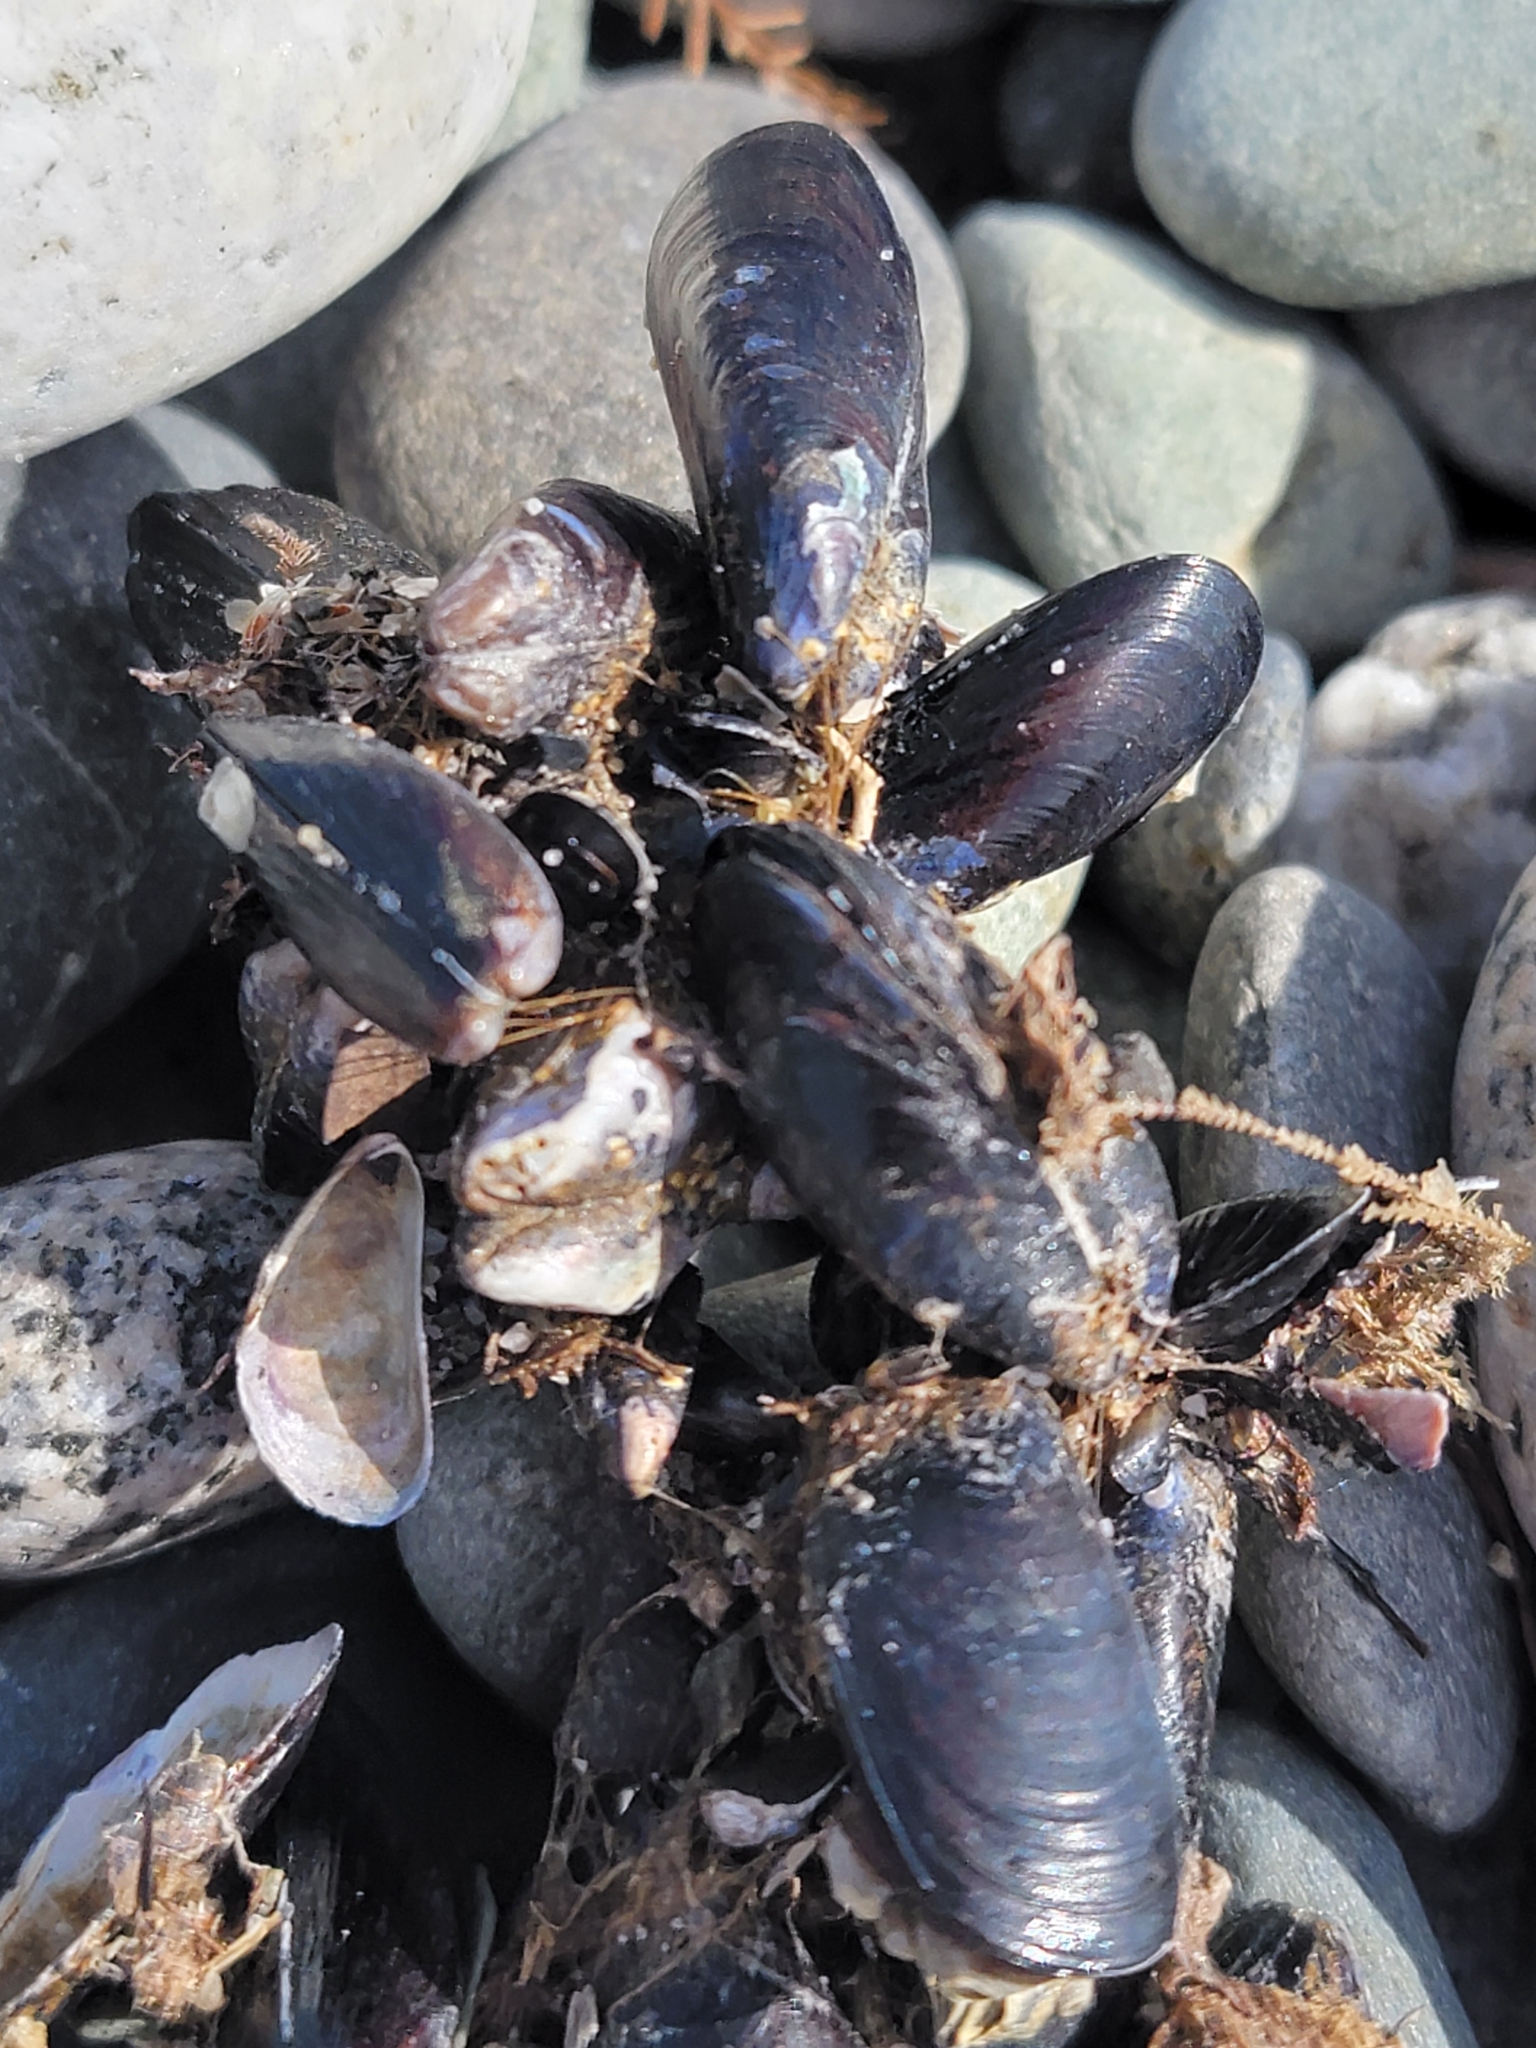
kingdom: Animalia
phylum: Mollusca
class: Bivalvia
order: Mytilida
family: Mytilidae
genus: Xenostrobus
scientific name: Xenostrobus neozelanicus
